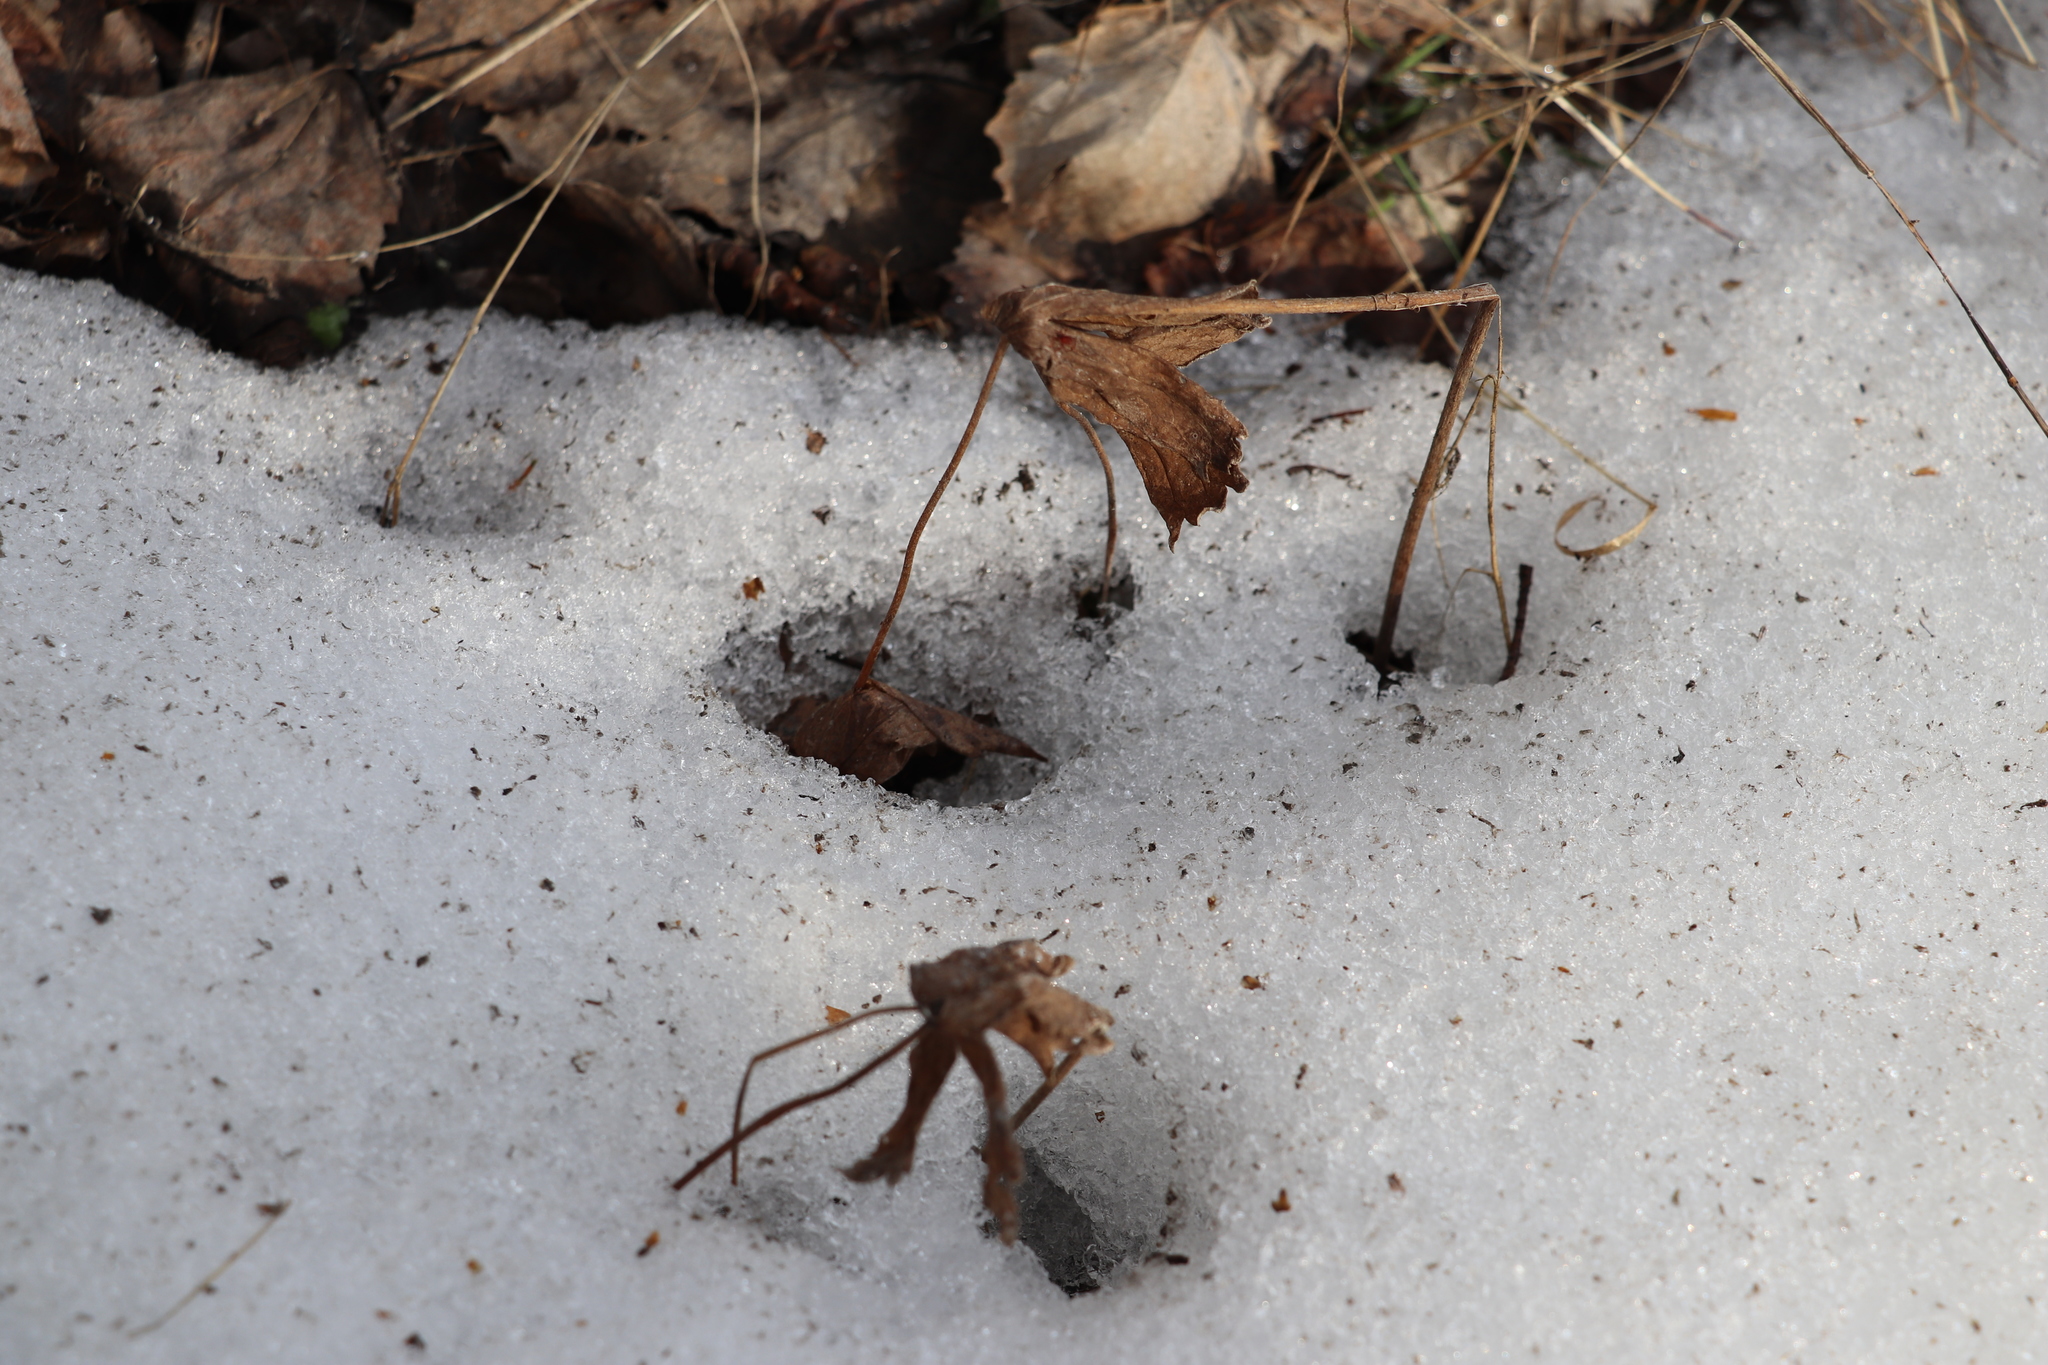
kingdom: Plantae
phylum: Tracheophyta
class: Magnoliopsida
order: Ranunculales
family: Ranunculaceae
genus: Anemonastrum
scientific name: Anemonastrum dichotomum
